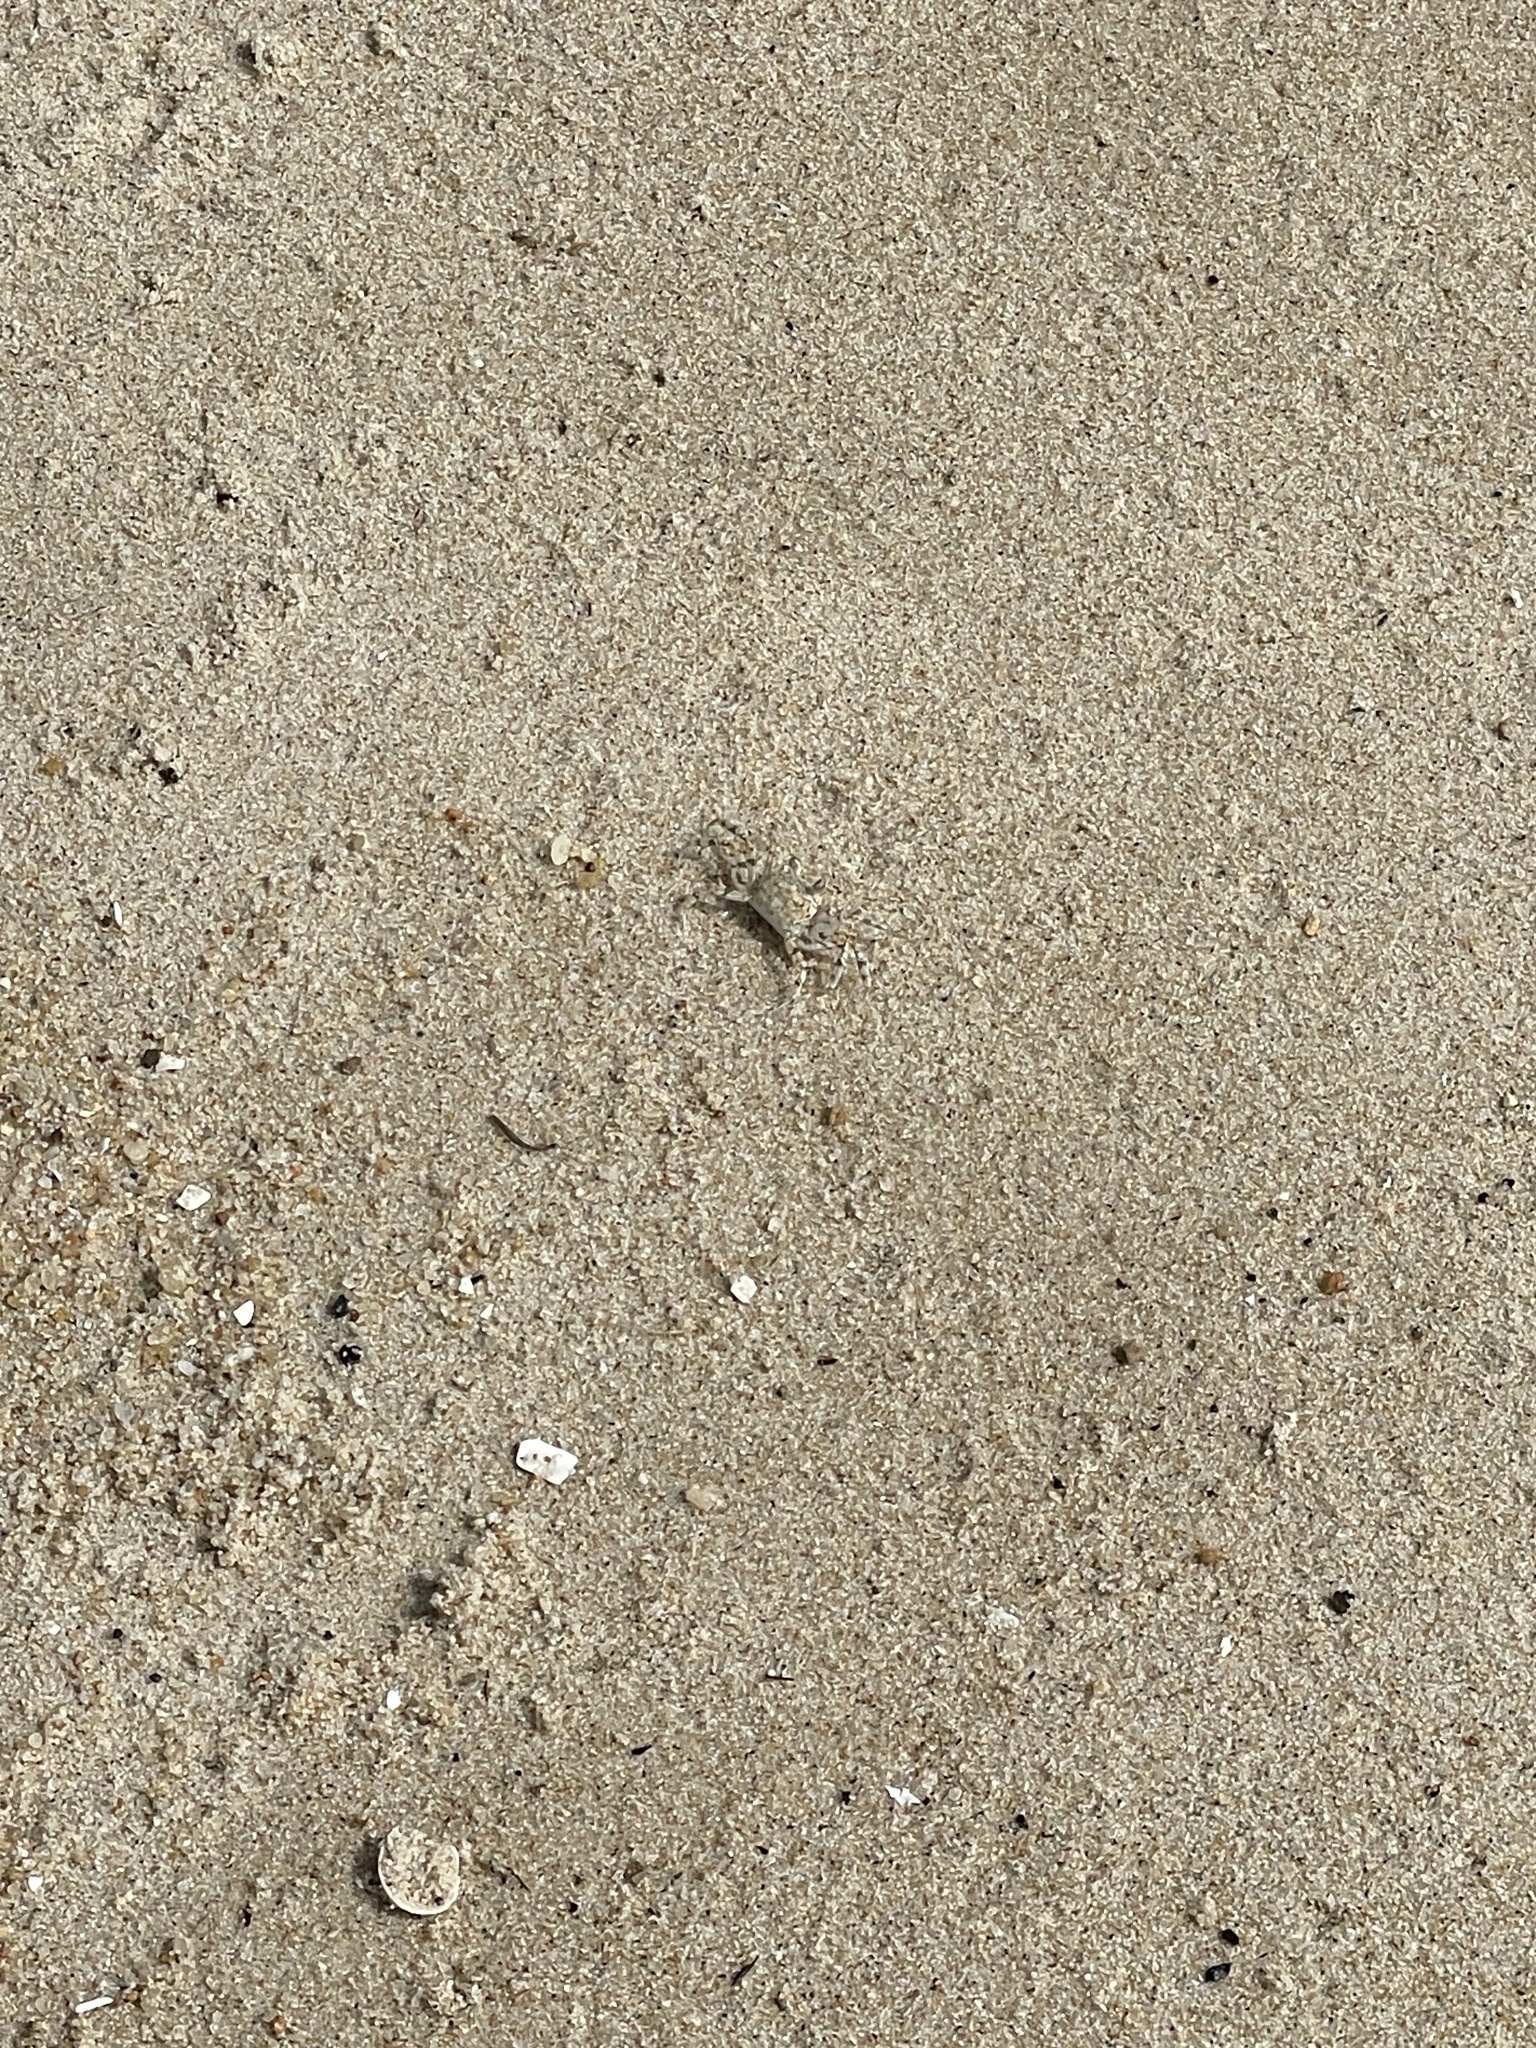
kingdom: Animalia
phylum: Arthropoda
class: Malacostraca
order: Decapoda
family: Ocypodidae
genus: Ocypode
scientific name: Ocypode quadrata
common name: Ghost crab
